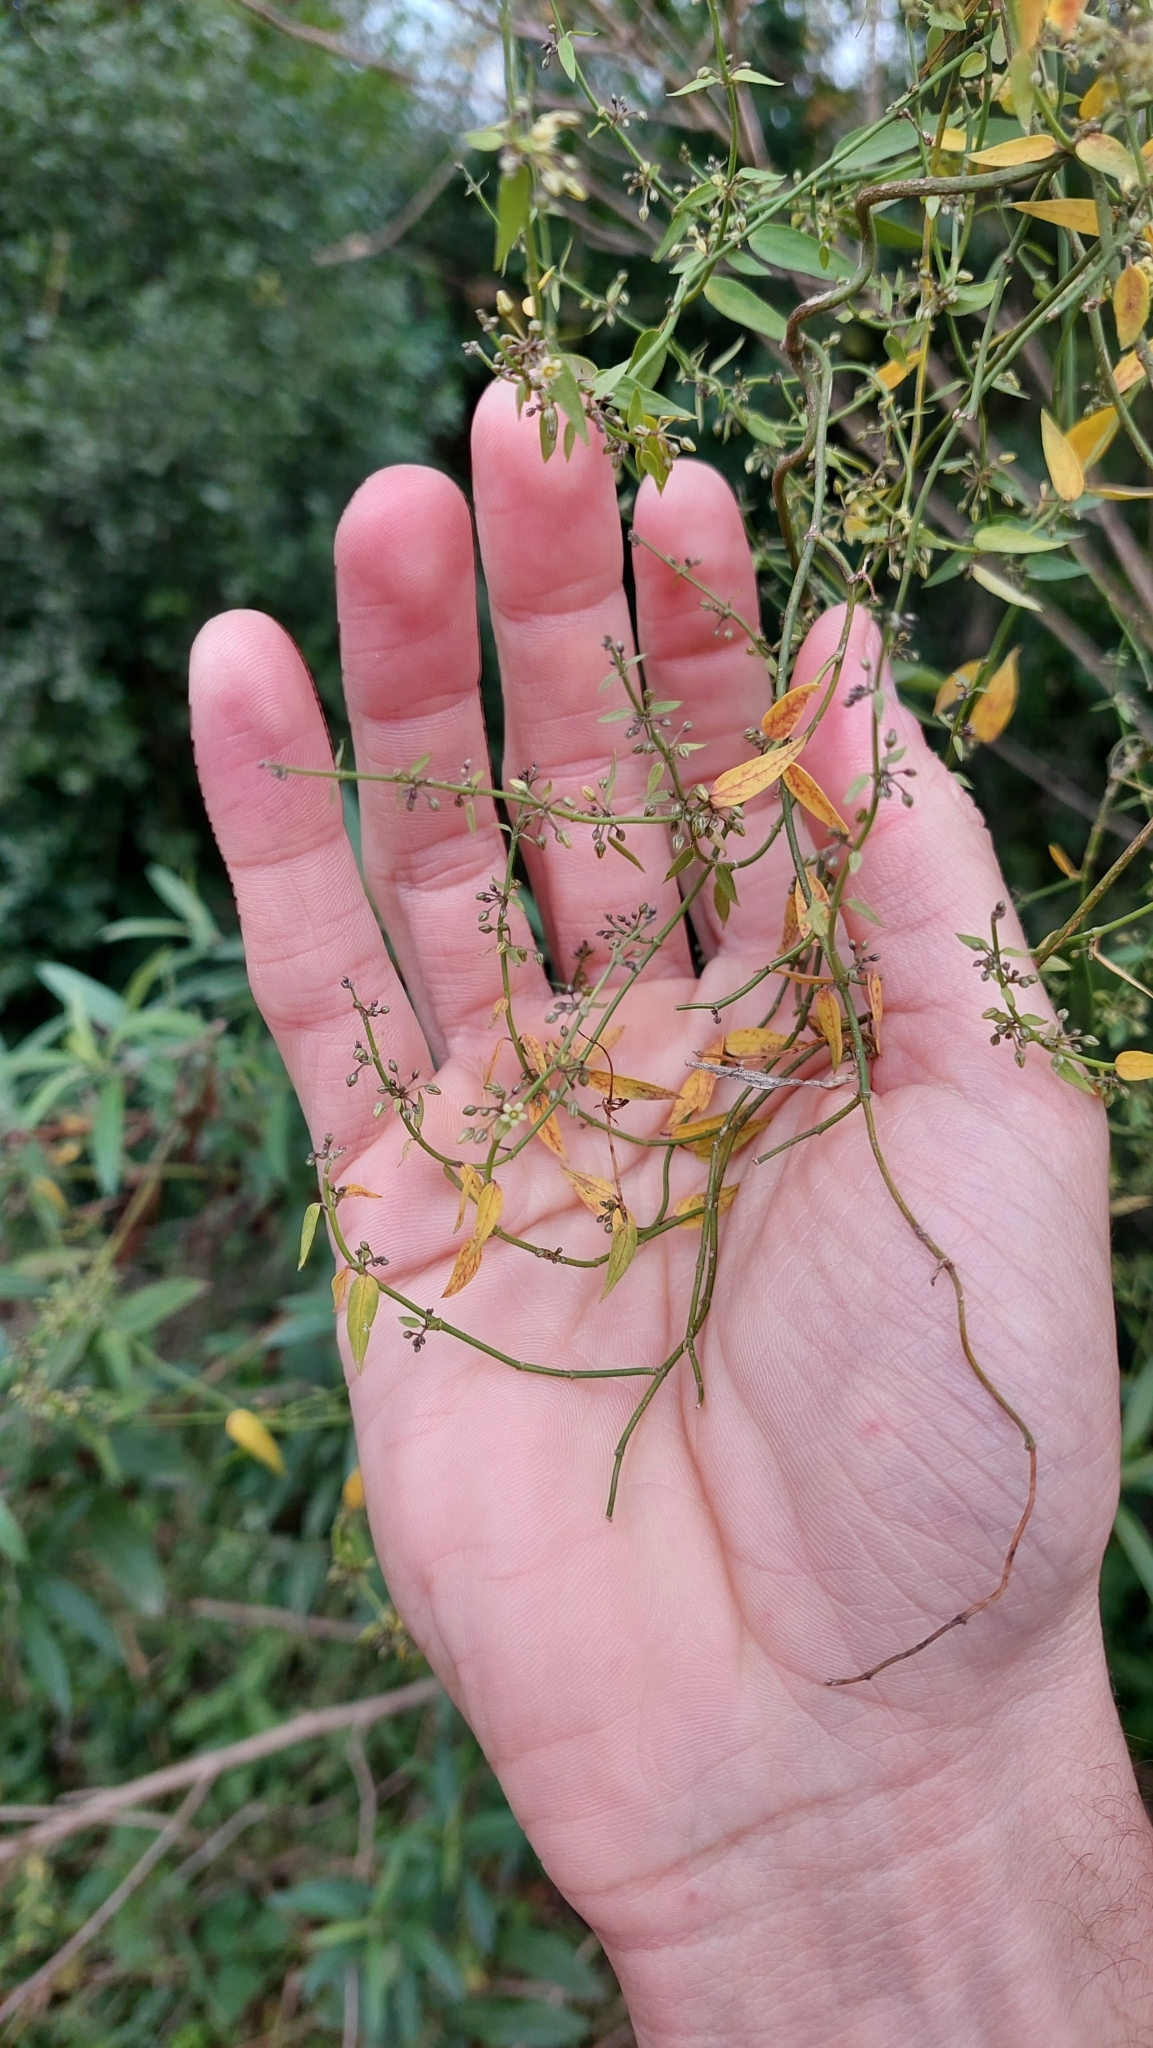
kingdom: Plantae
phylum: Tracheophyta
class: Magnoliopsida
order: Gentianales
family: Apocynaceae
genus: Orthosia
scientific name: Orthosia virgata
